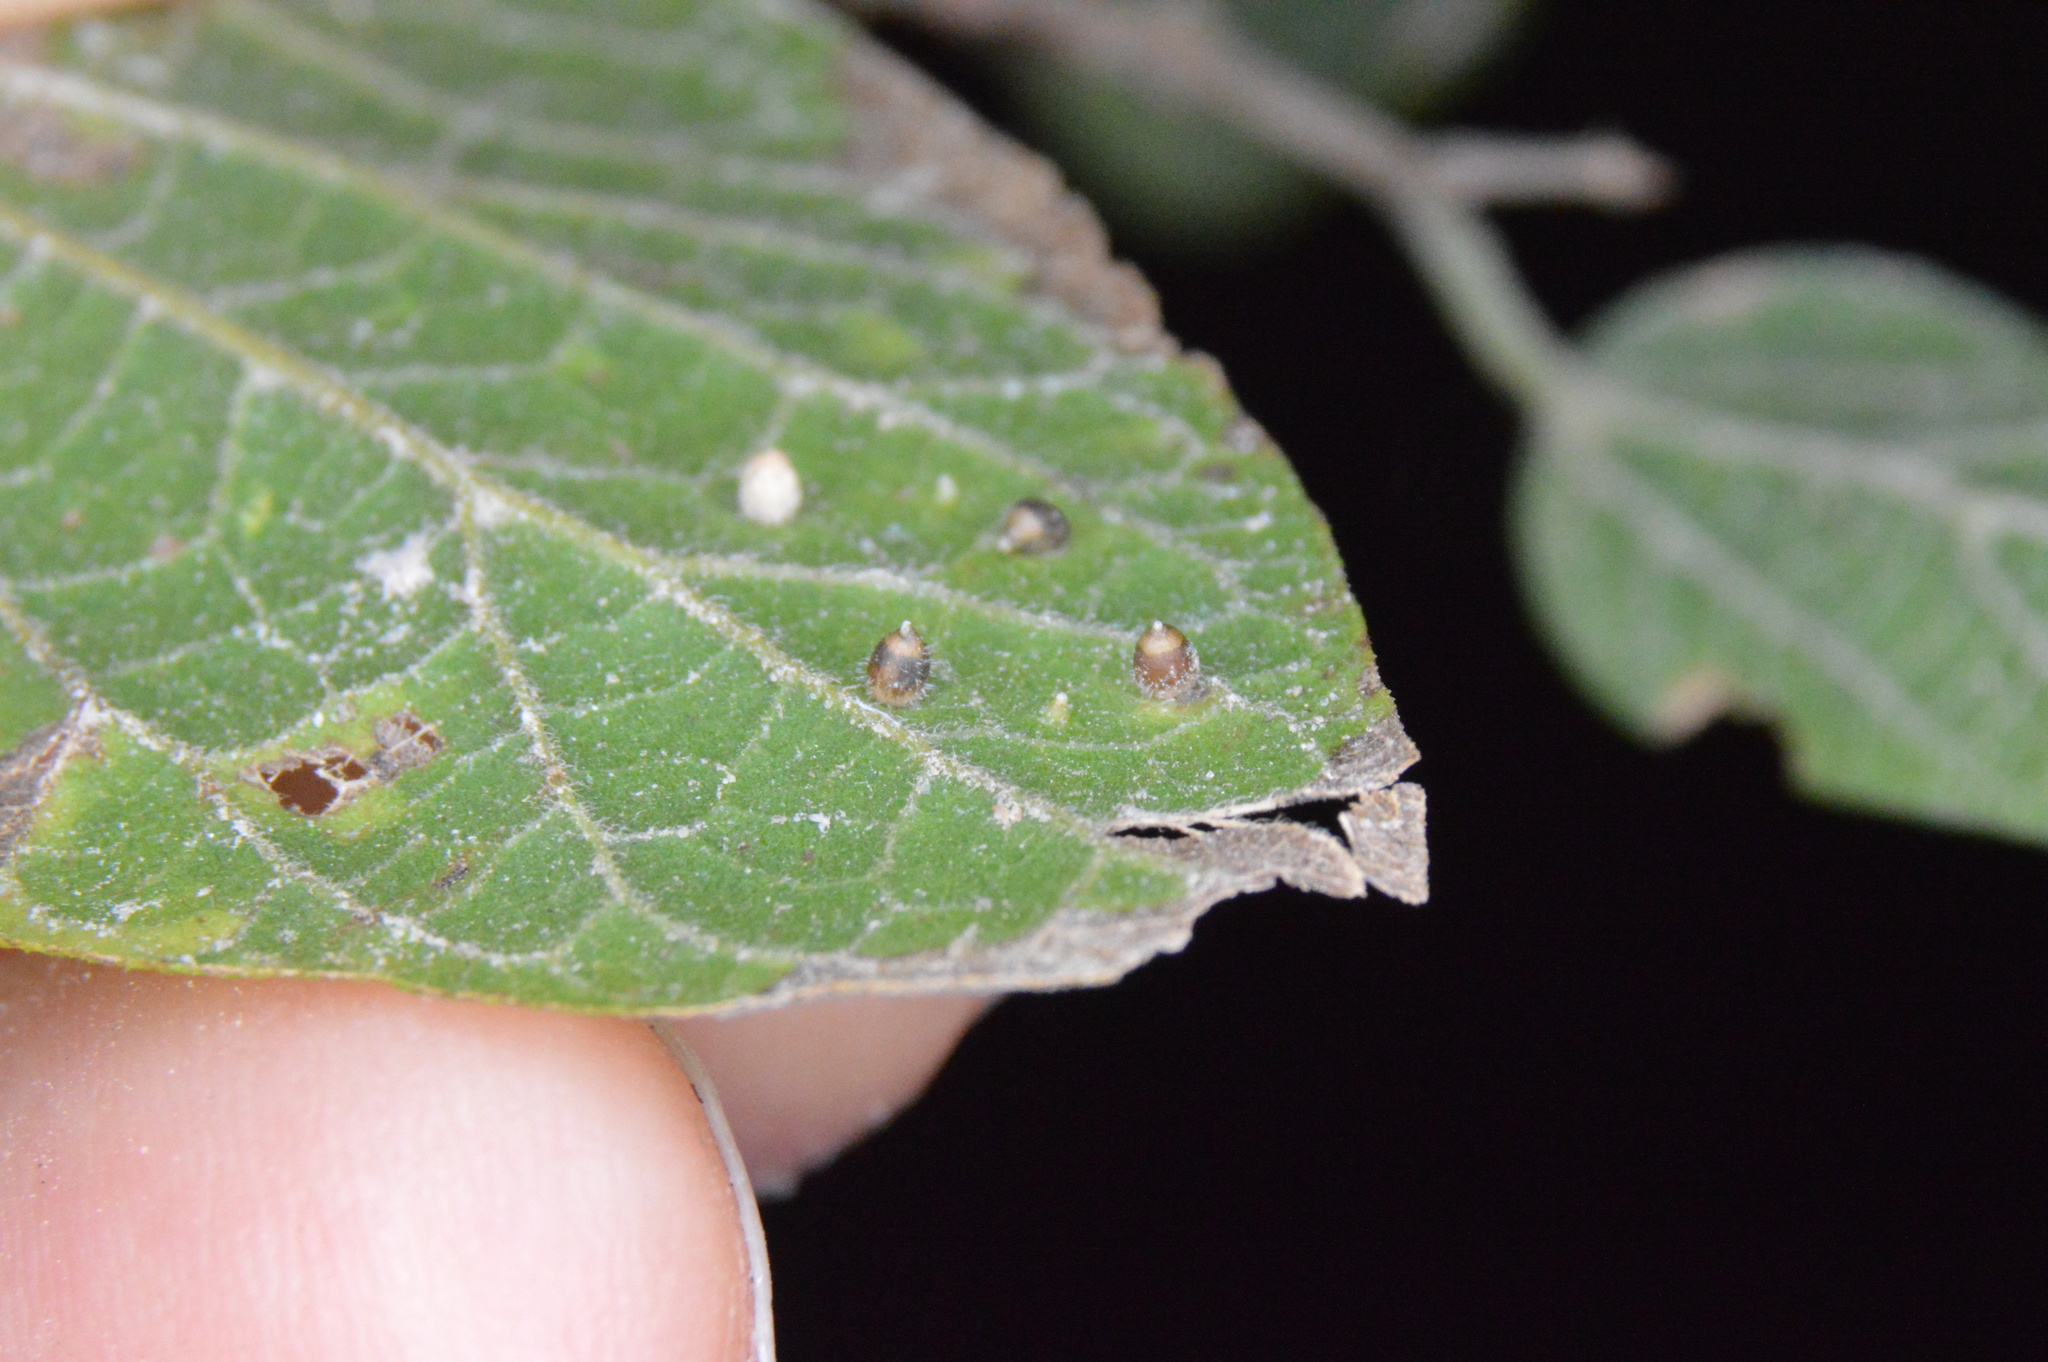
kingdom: Animalia
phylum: Arthropoda
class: Insecta
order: Diptera
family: Cecidomyiidae
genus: Celticecis
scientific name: Celticecis cupiformis
